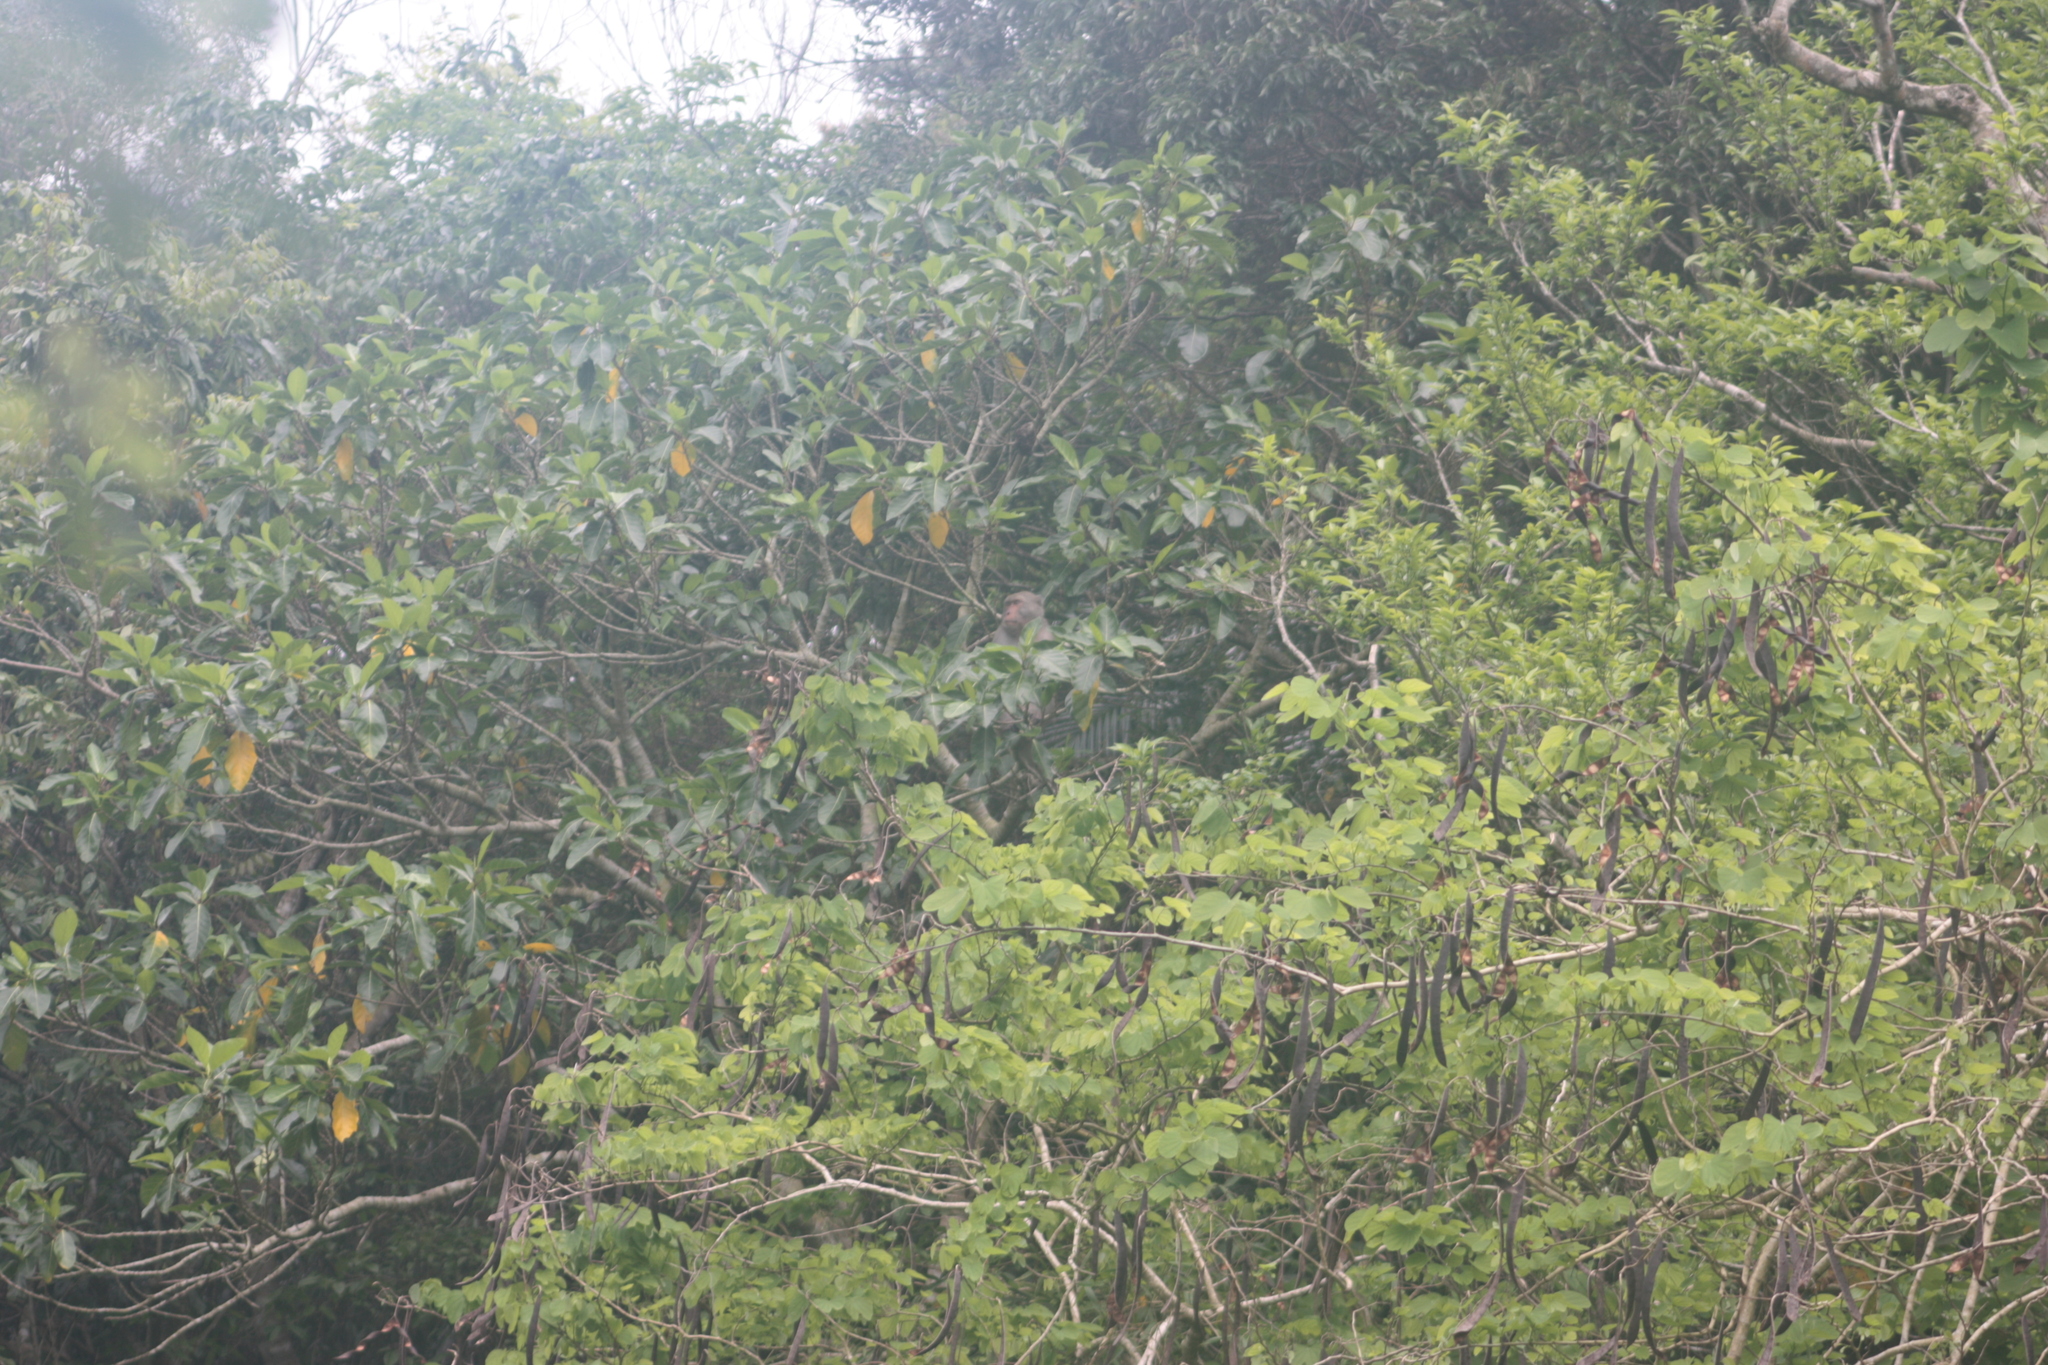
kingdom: Animalia
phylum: Chordata
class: Mammalia
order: Primates
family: Cercopithecidae
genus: Macaca
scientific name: Macaca cyclopis
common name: Formosan rock macaque
